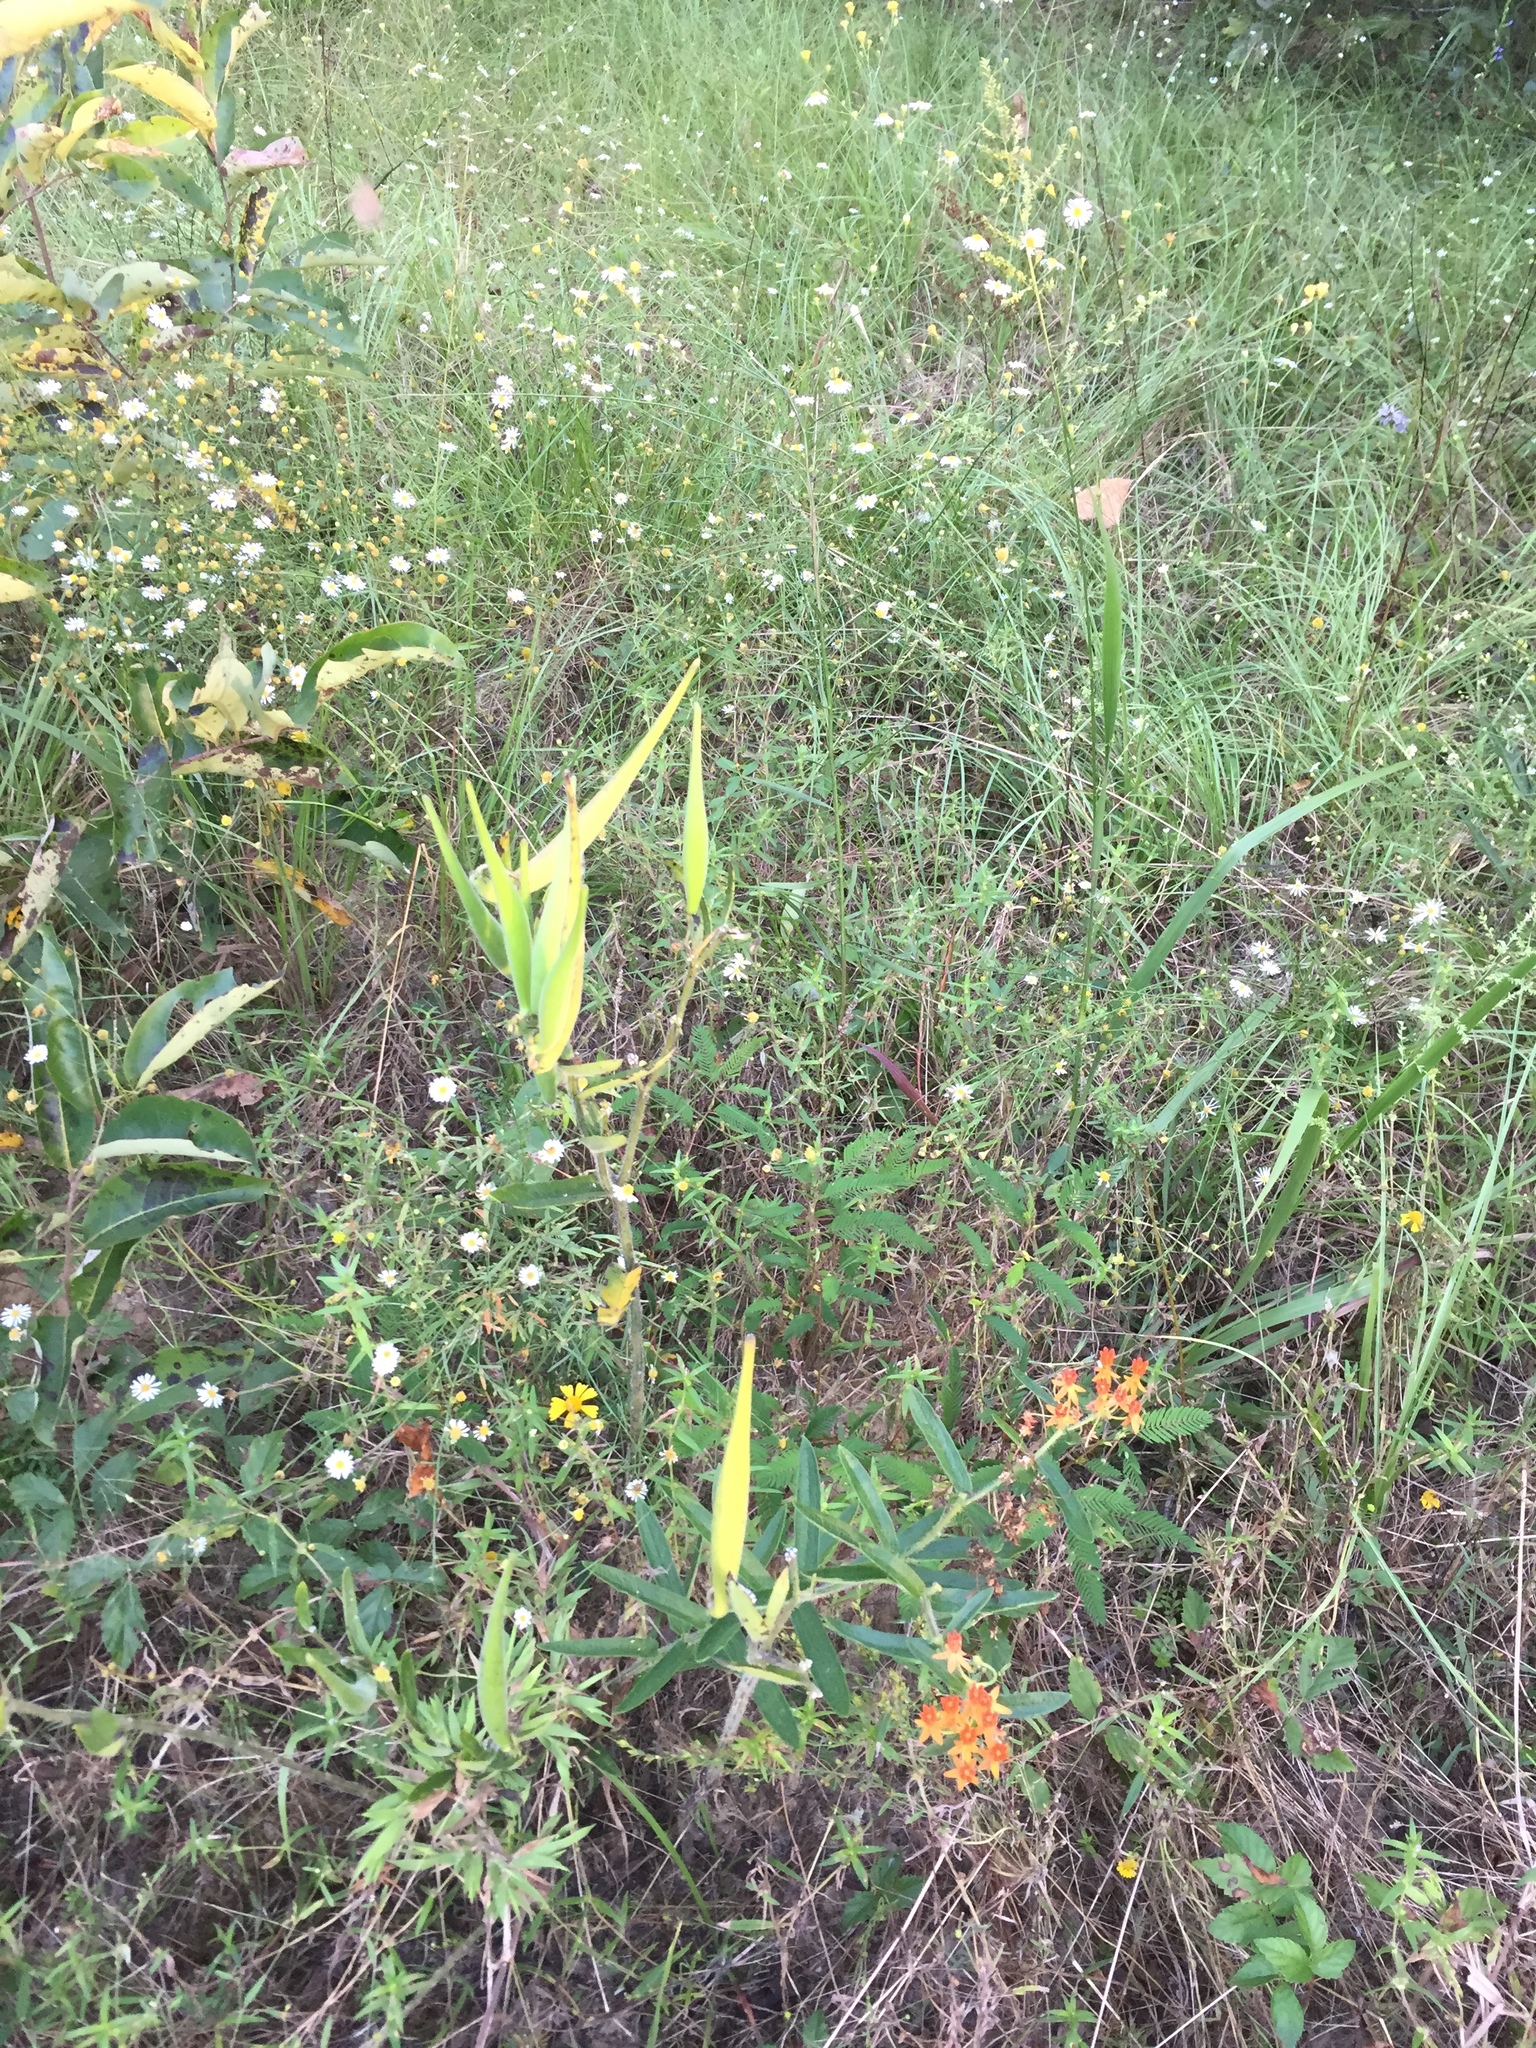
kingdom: Plantae
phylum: Tracheophyta
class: Magnoliopsida
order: Gentianales
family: Apocynaceae
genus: Asclepias
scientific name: Asclepias tuberosa
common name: Butterfly milkweed
